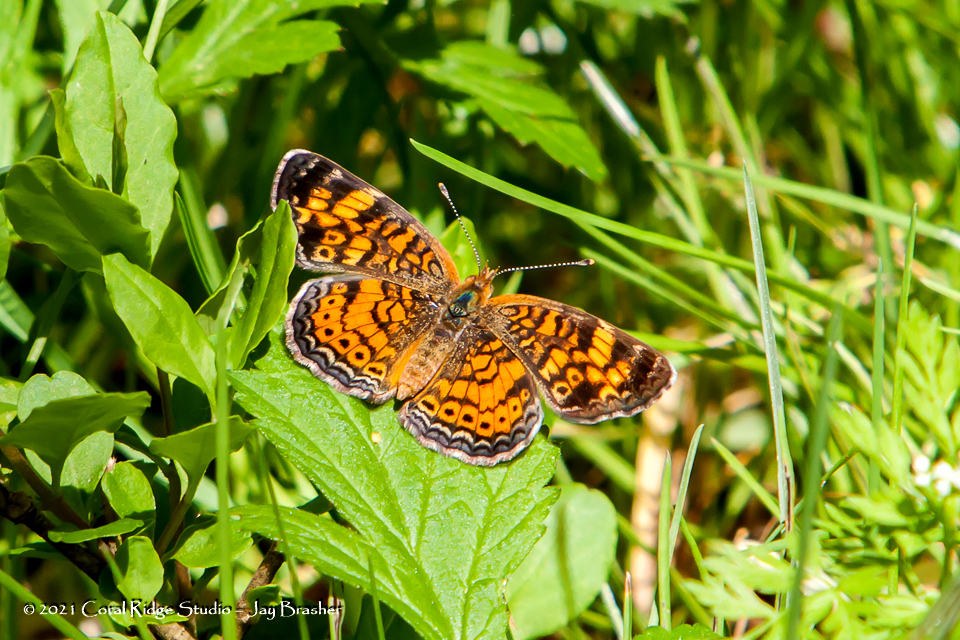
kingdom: Animalia
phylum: Arthropoda
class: Insecta
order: Lepidoptera
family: Nymphalidae
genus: Phyciodes
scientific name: Phyciodes tharos
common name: Pearl crescent
